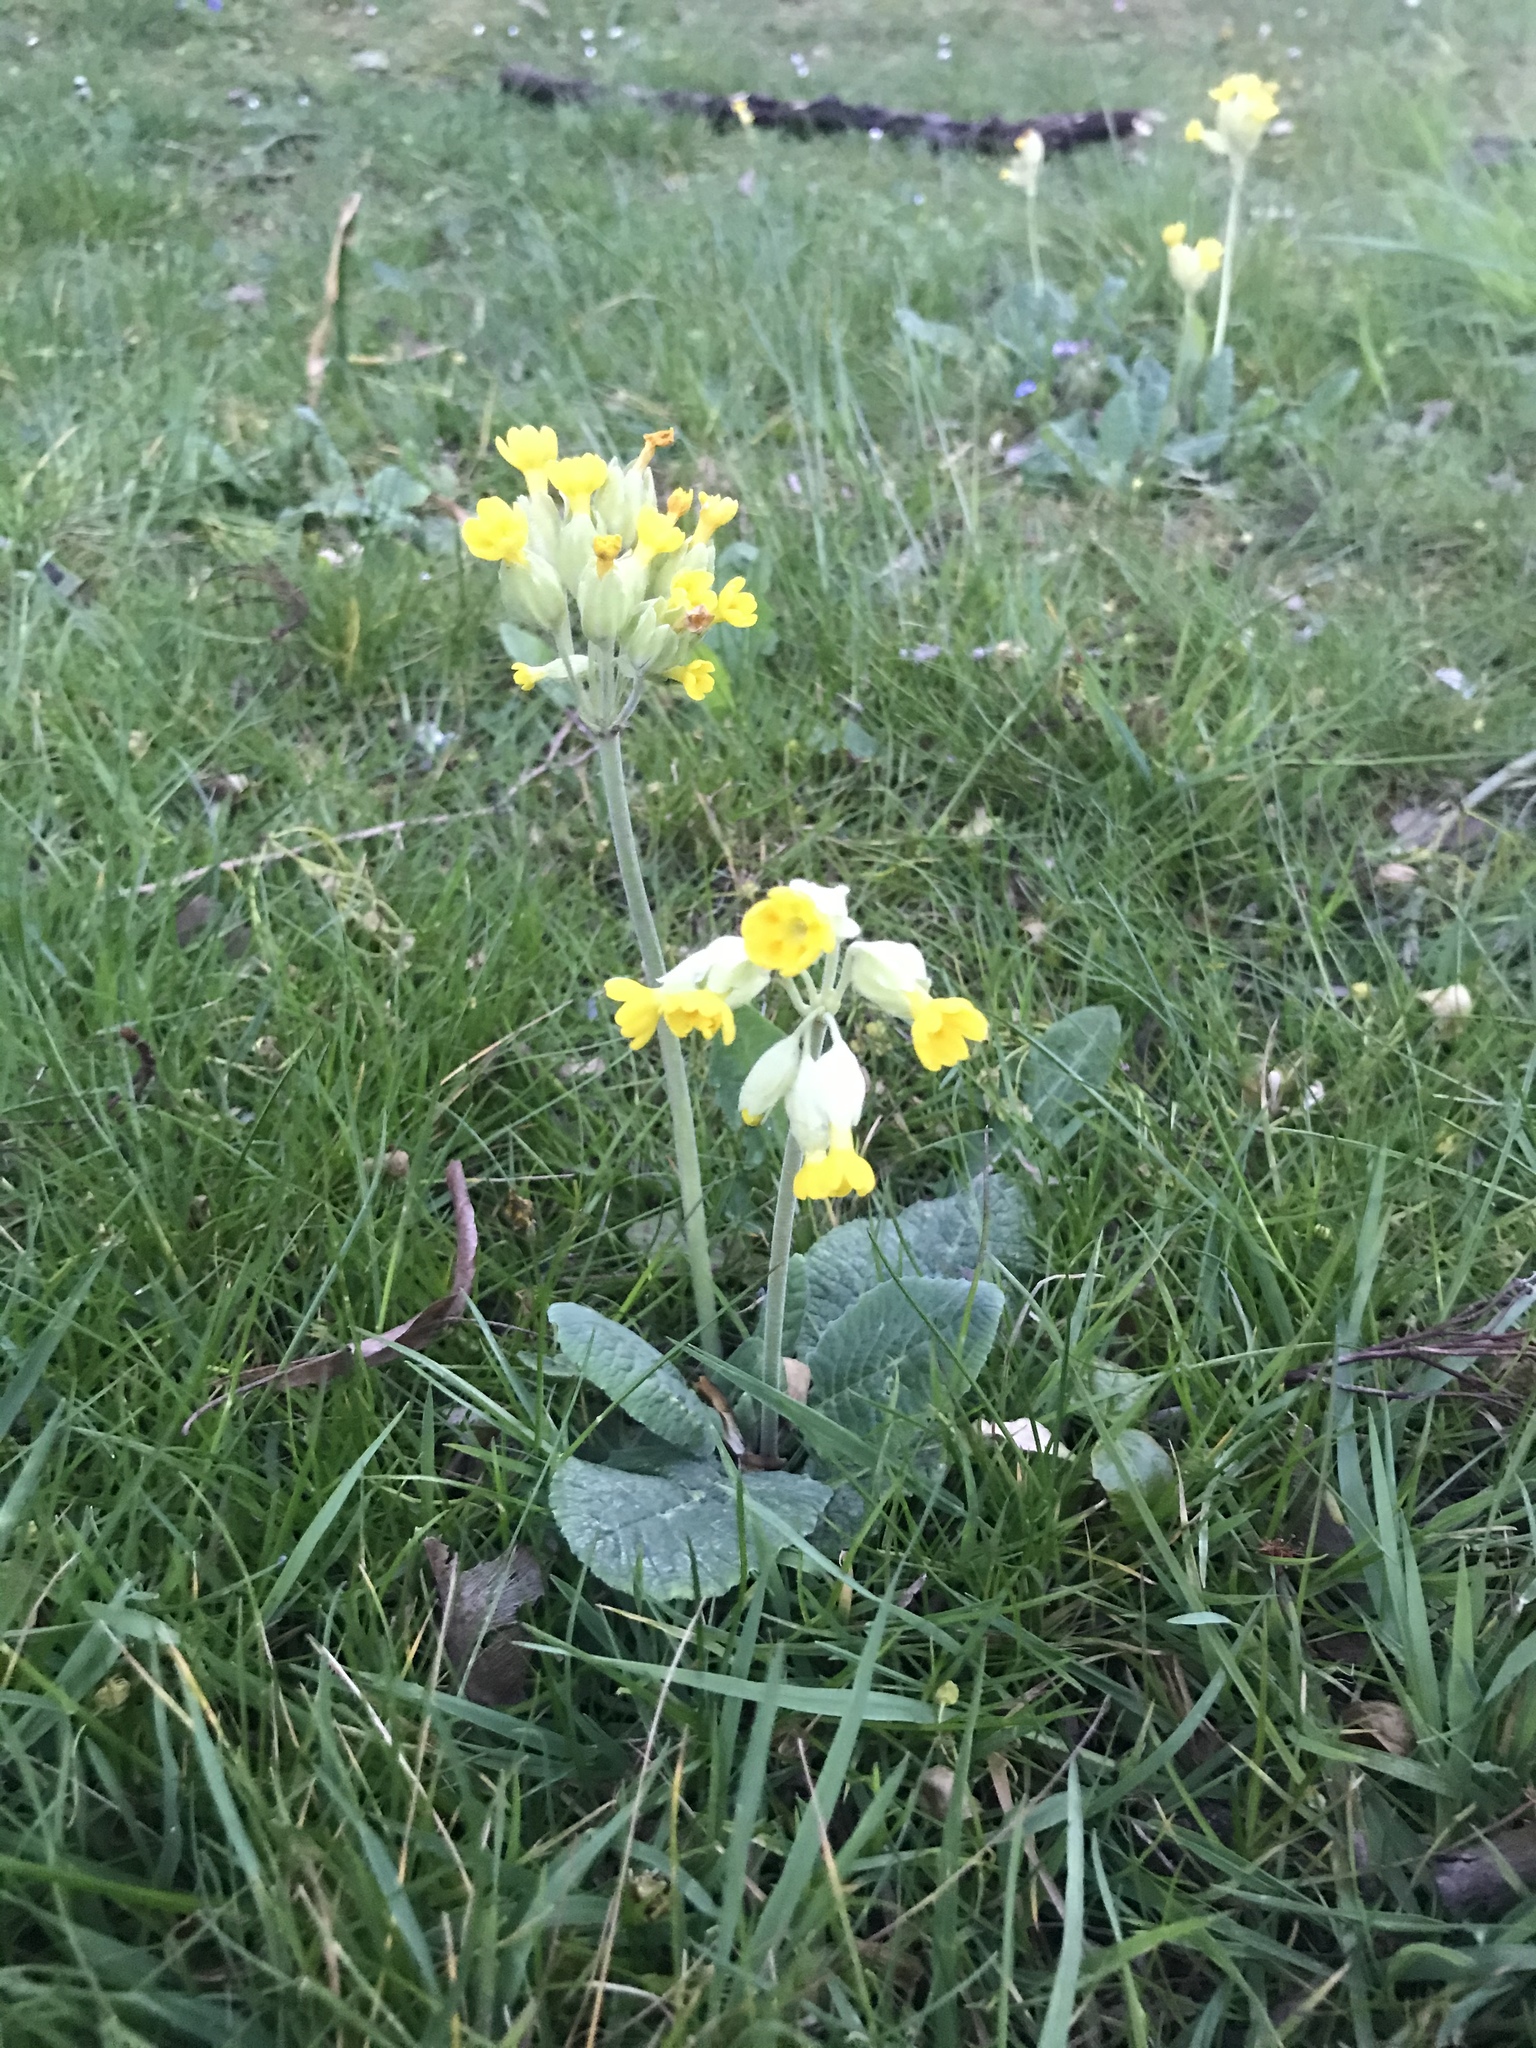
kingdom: Plantae
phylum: Tracheophyta
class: Magnoliopsida
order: Ericales
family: Primulaceae
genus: Primula
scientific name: Primula veris
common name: Cowslip
